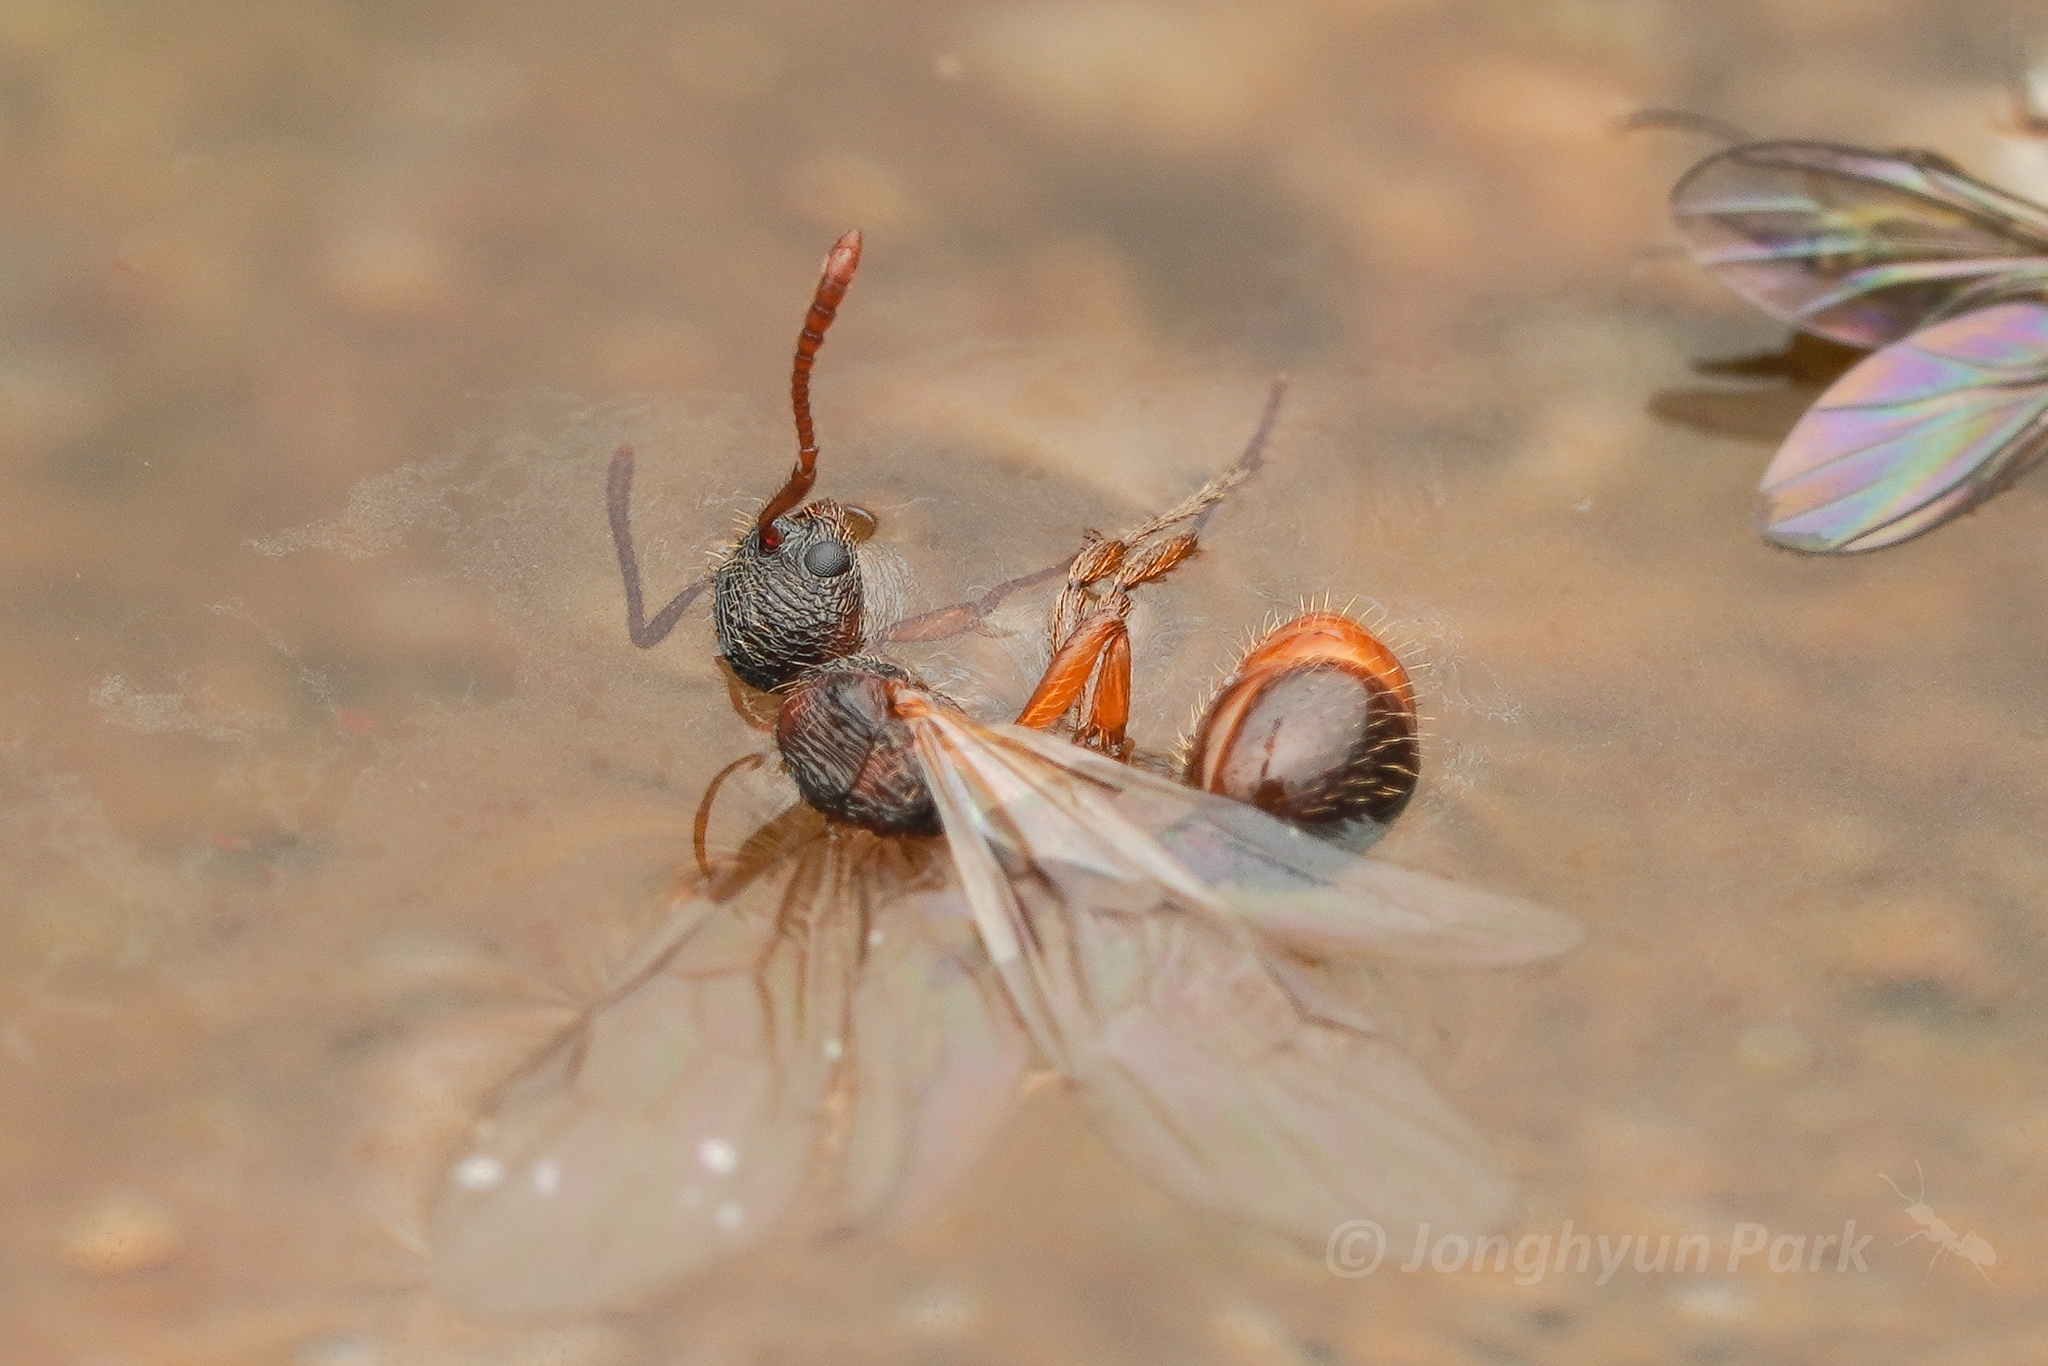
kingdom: Animalia
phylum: Arthropoda
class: Insecta
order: Hymenoptera
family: Formicidae
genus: Myrmica
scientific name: Myrmica kotokui
